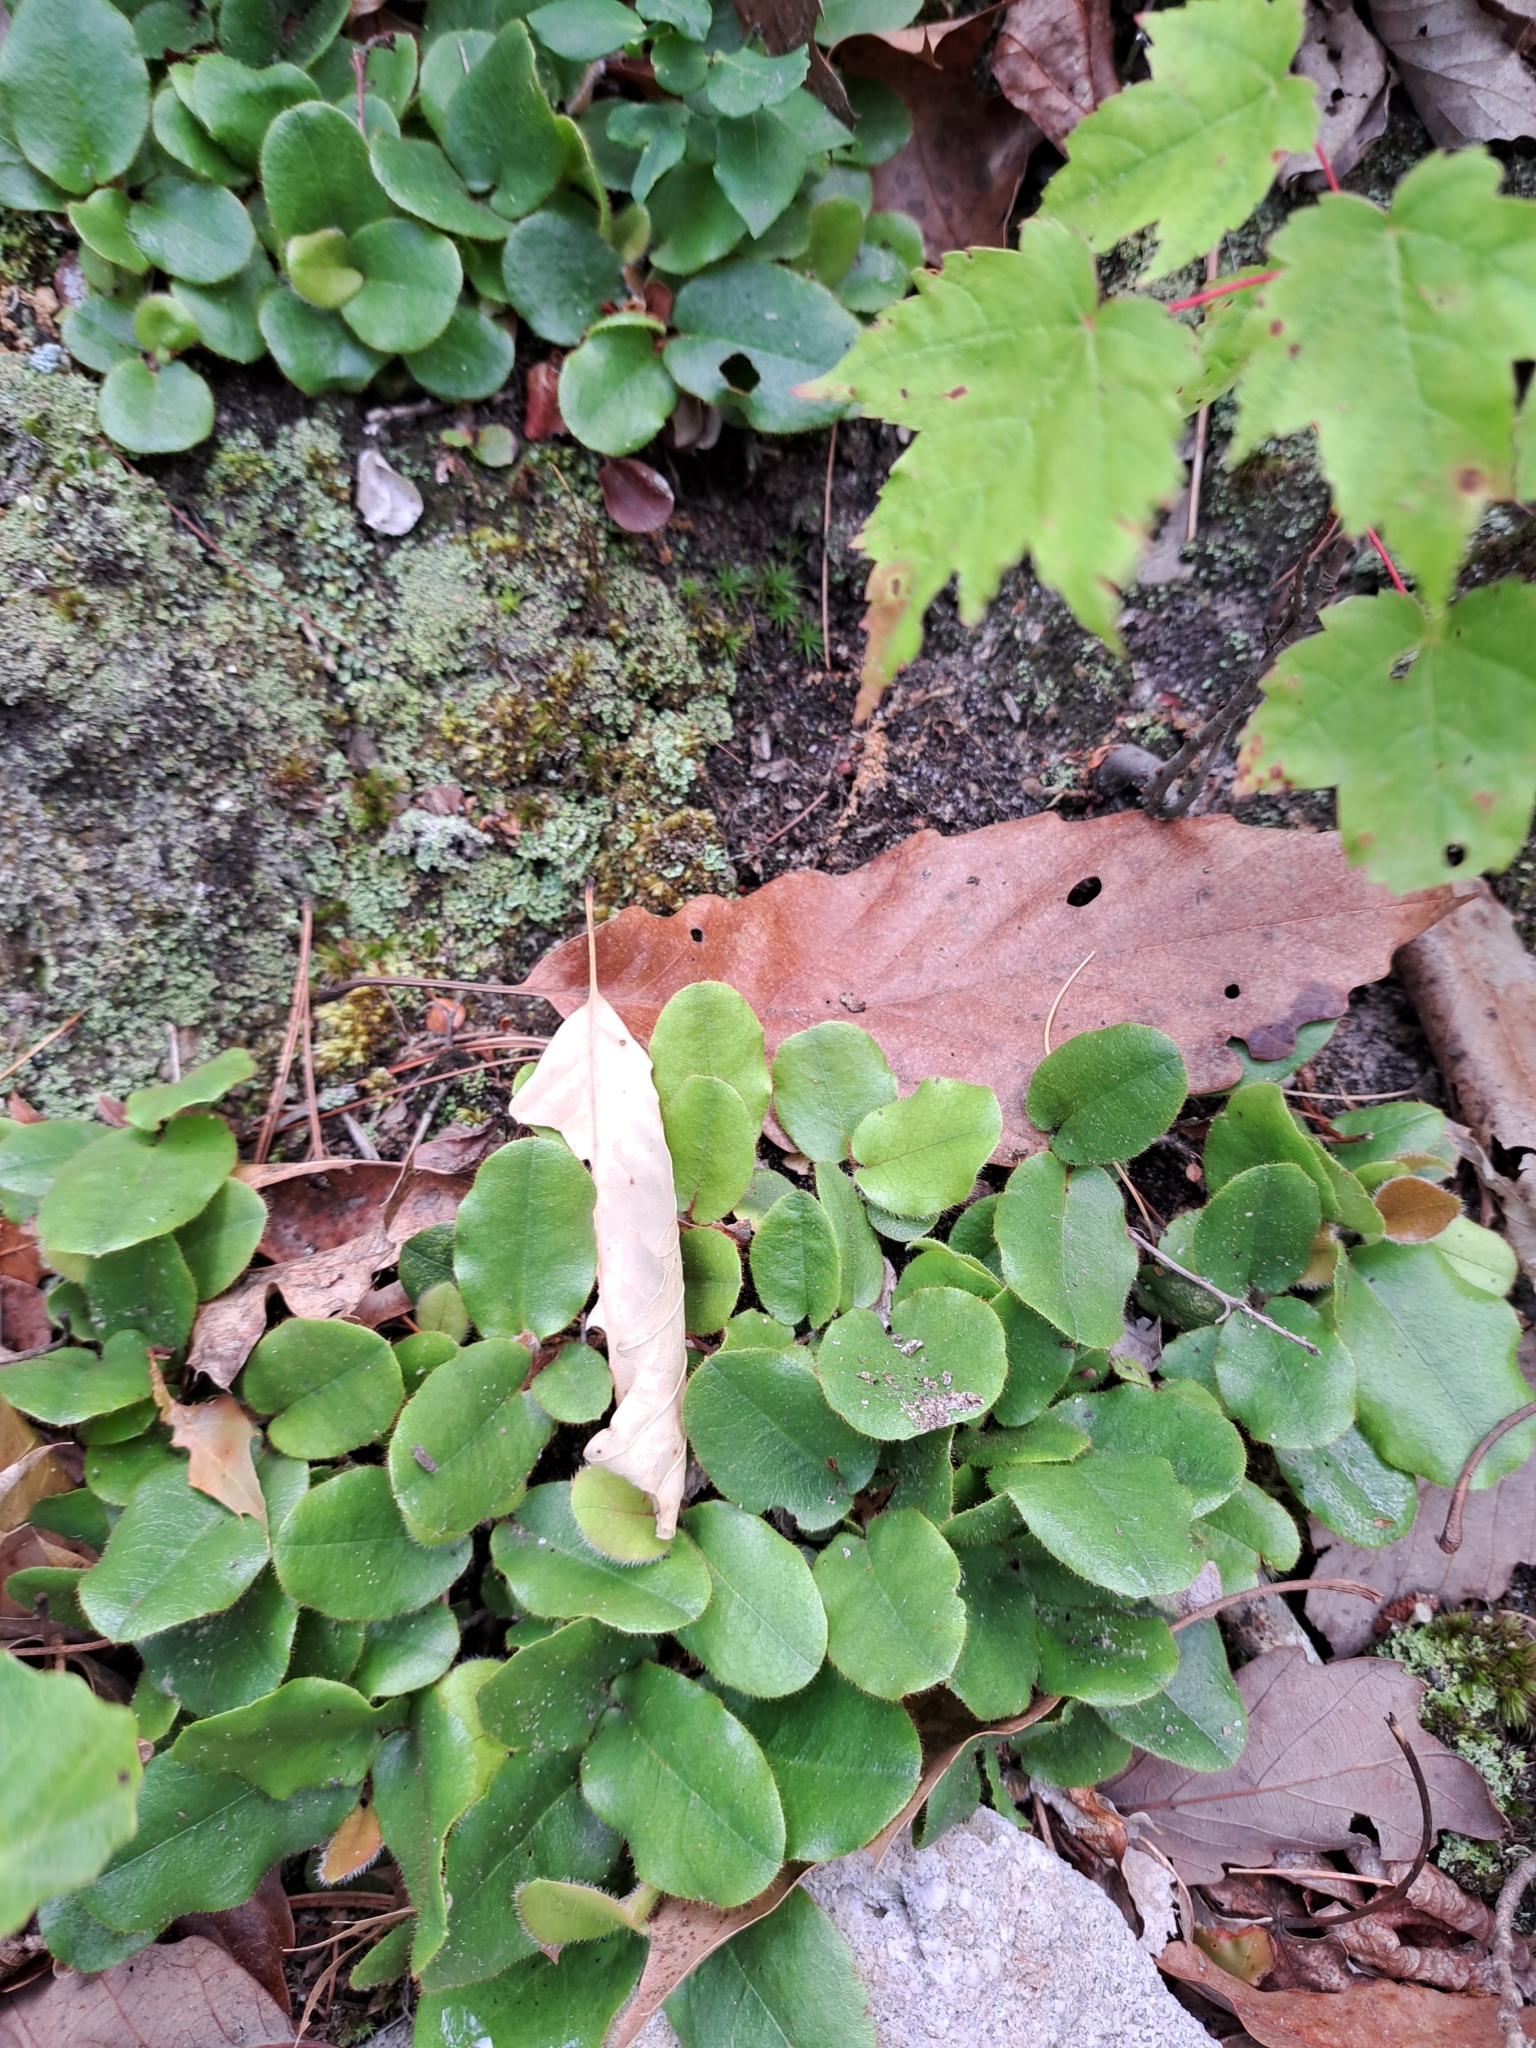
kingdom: Plantae
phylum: Tracheophyta
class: Magnoliopsida
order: Ericales
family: Ericaceae
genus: Epigaea
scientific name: Epigaea repens
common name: Gravelroot
